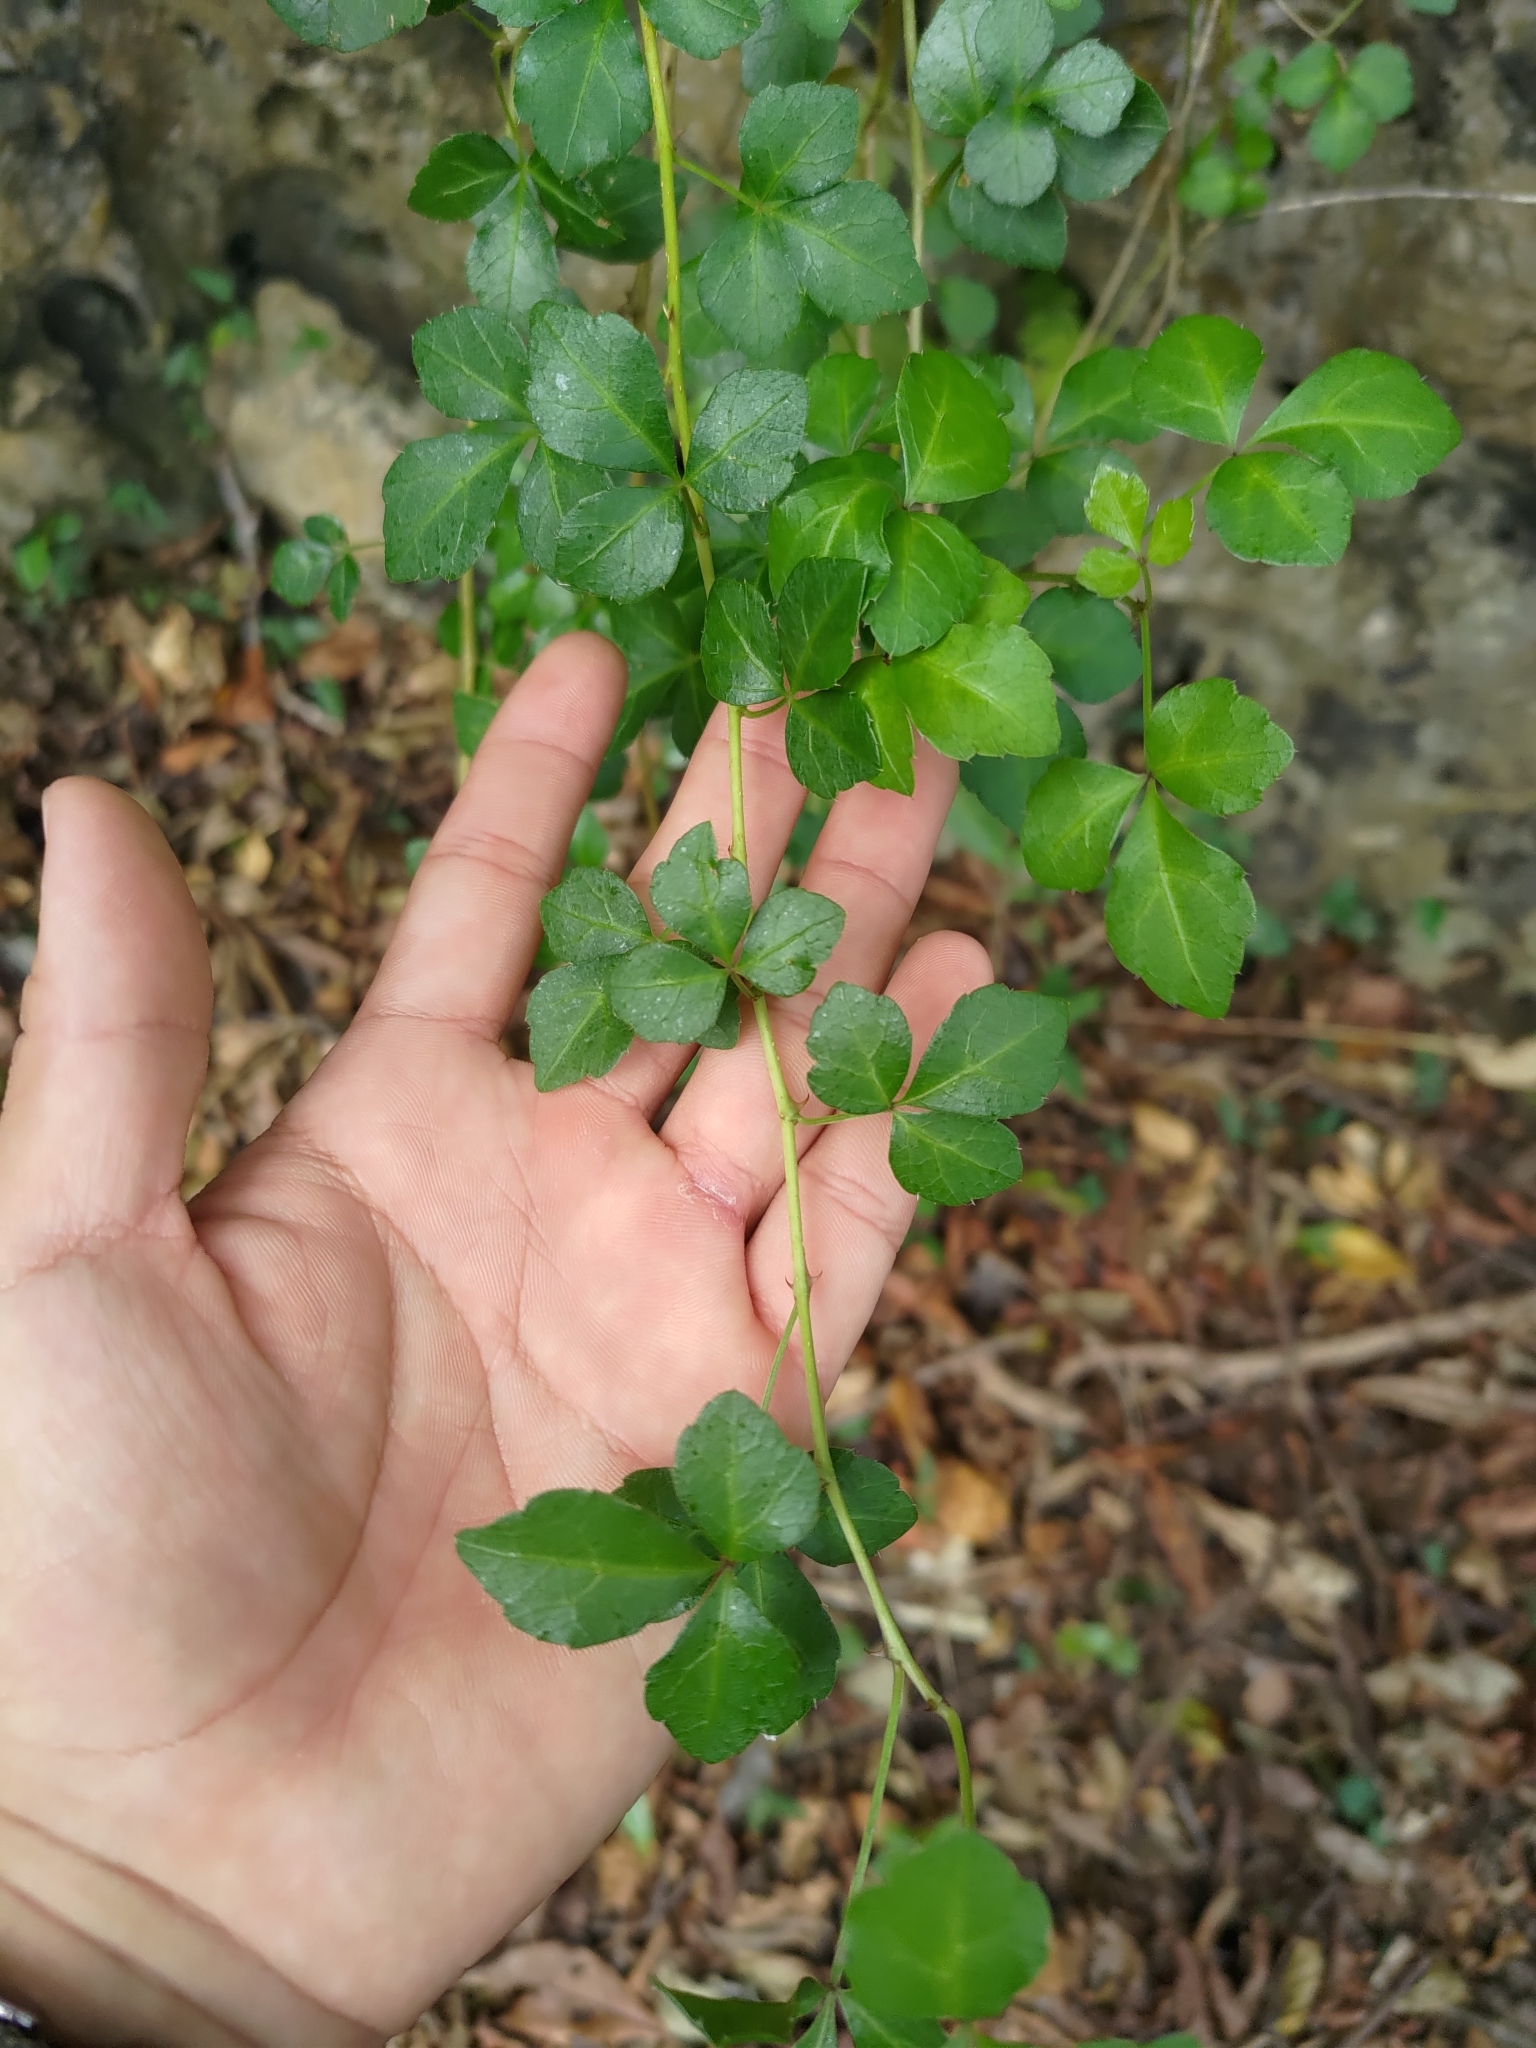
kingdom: Plantae
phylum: Tracheophyta
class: Magnoliopsida
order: Apiales
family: Araliaceae
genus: Eleutherococcus
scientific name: Eleutherococcus trifoliatus
